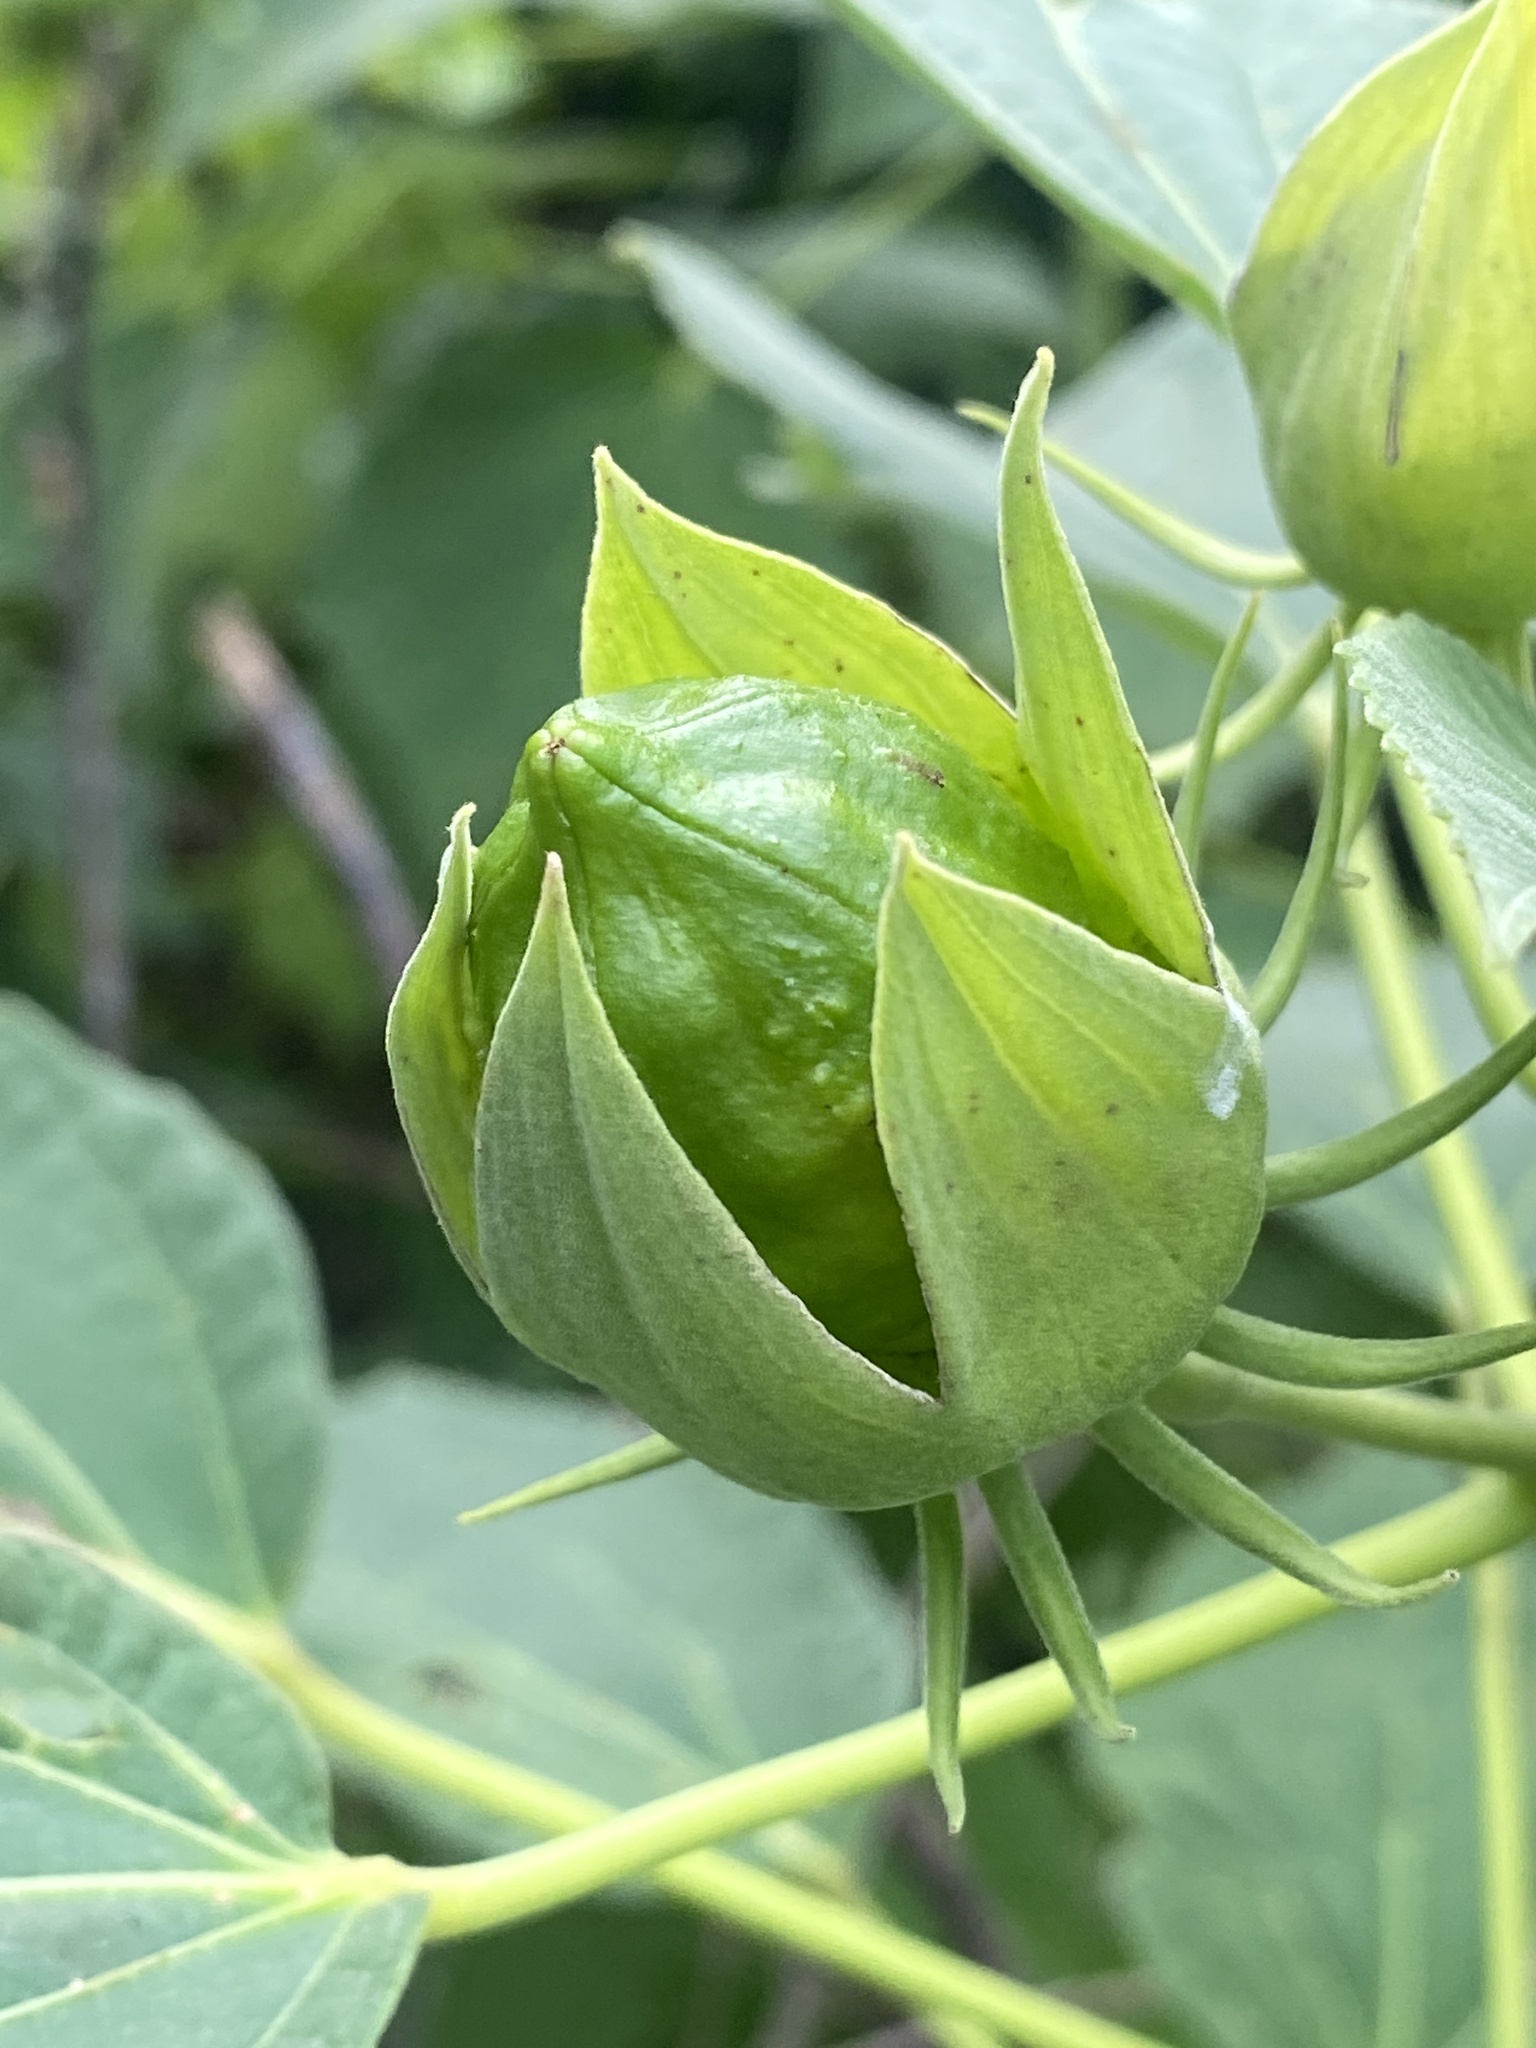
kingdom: Plantae
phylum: Tracheophyta
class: Magnoliopsida
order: Malvales
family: Malvaceae
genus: Hibiscus
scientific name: Hibiscus moscheutos
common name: Common rose-mallow
